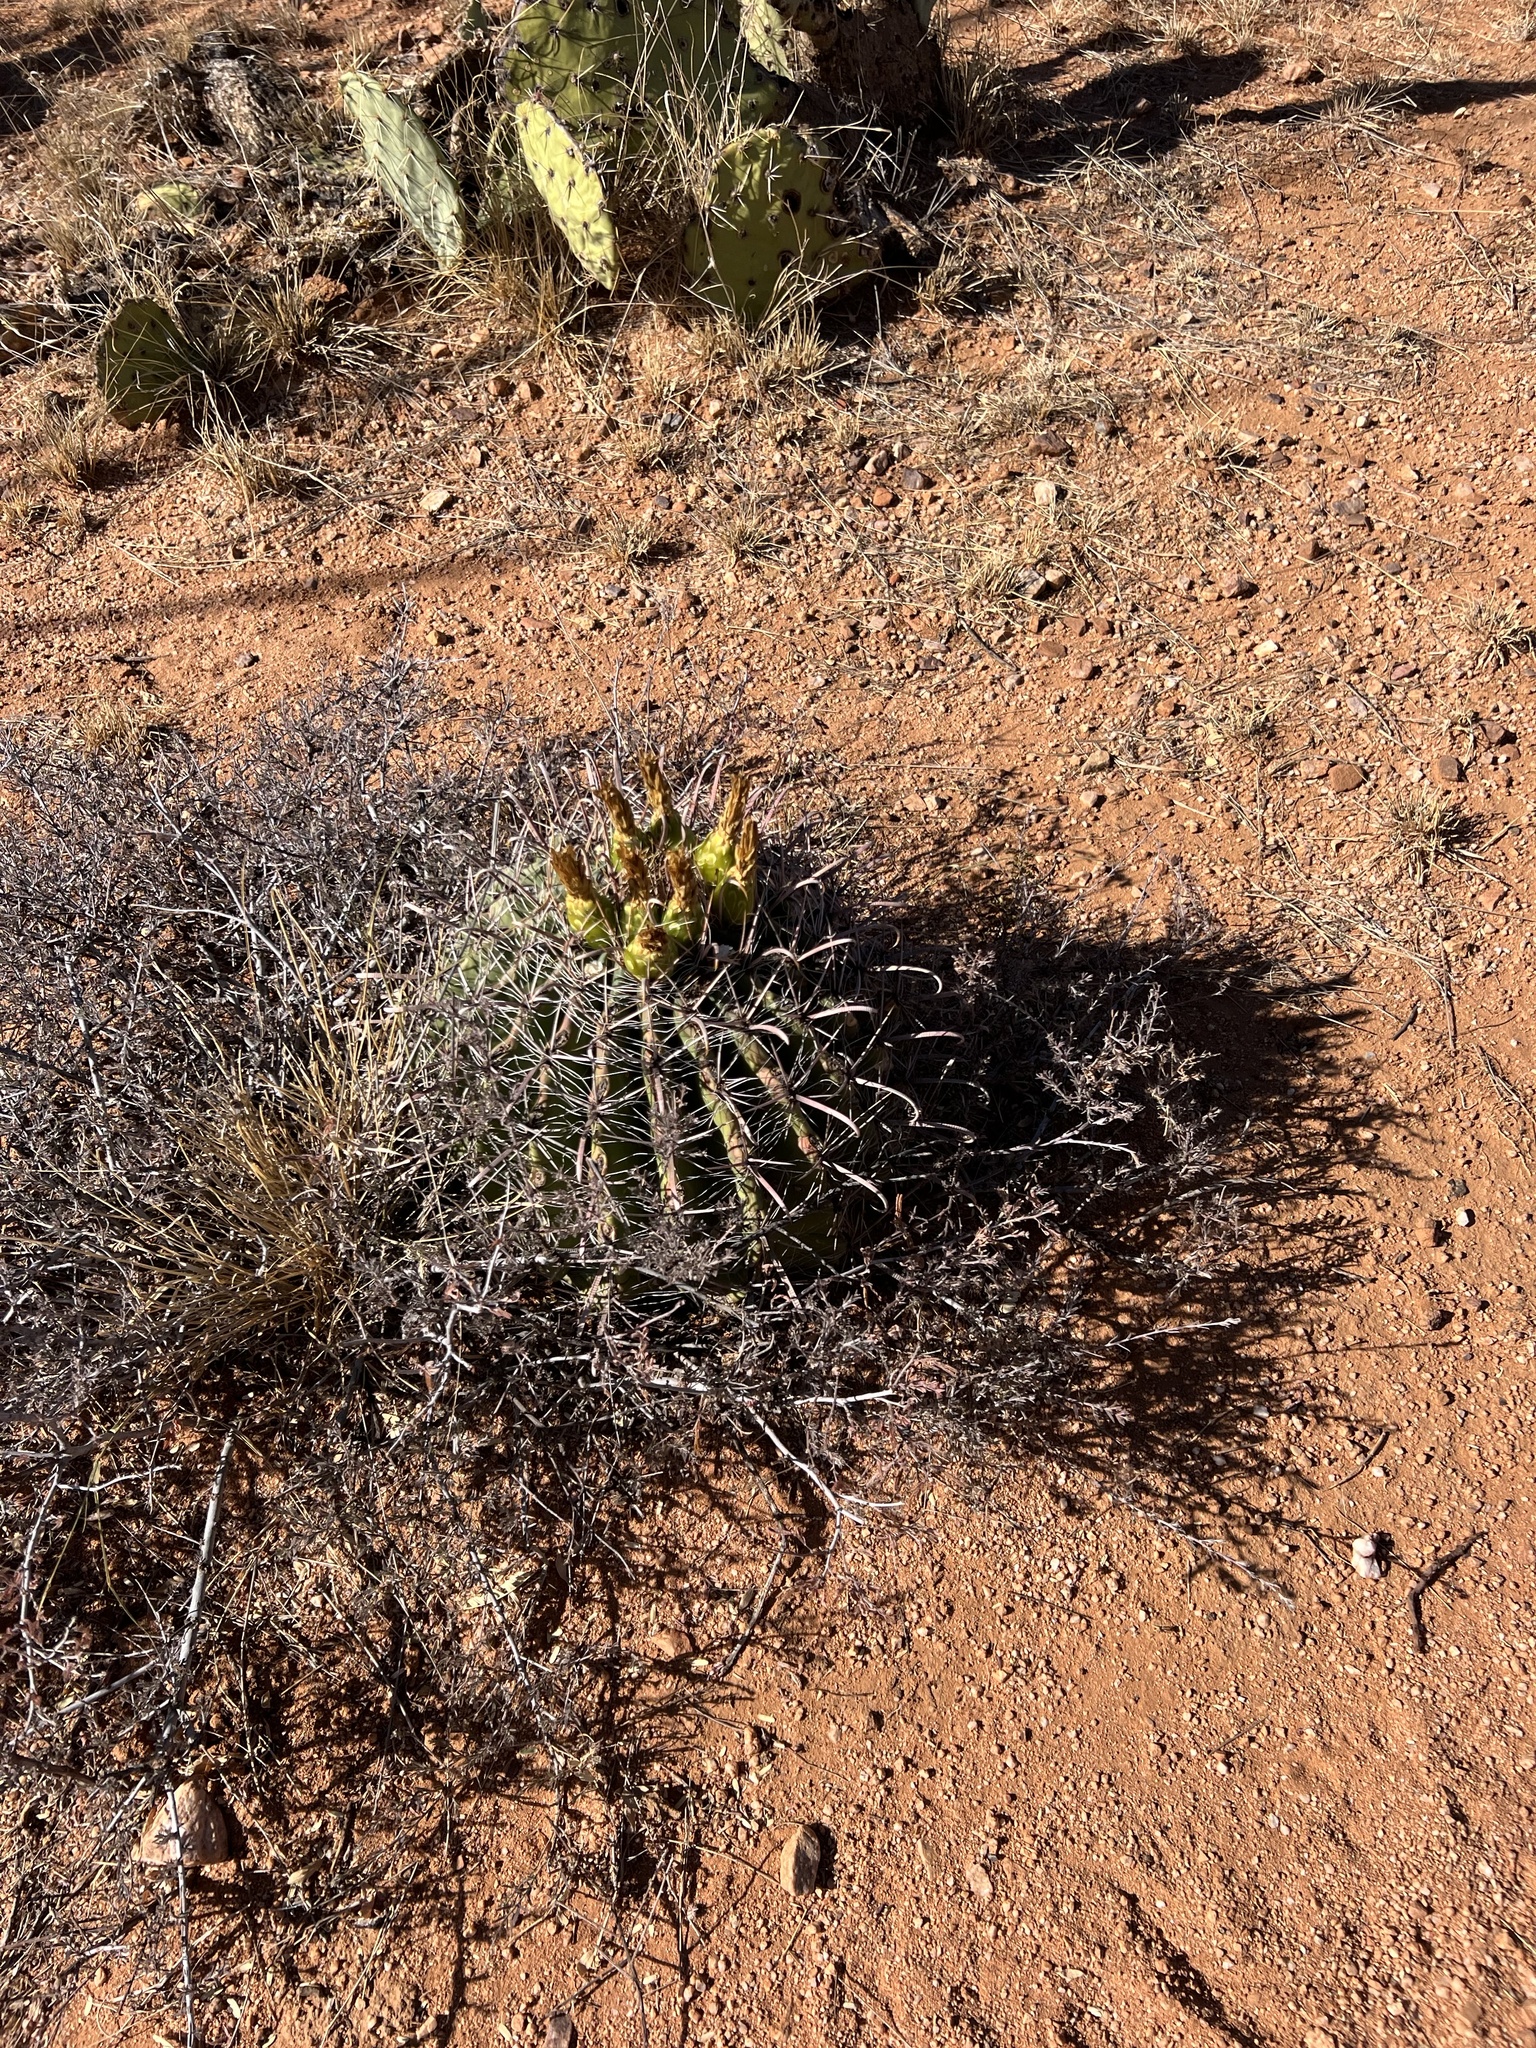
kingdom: Plantae
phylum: Tracheophyta
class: Magnoliopsida
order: Caryophyllales
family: Cactaceae
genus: Ferocactus
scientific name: Ferocactus wislizeni
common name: Candy barrel cactus
